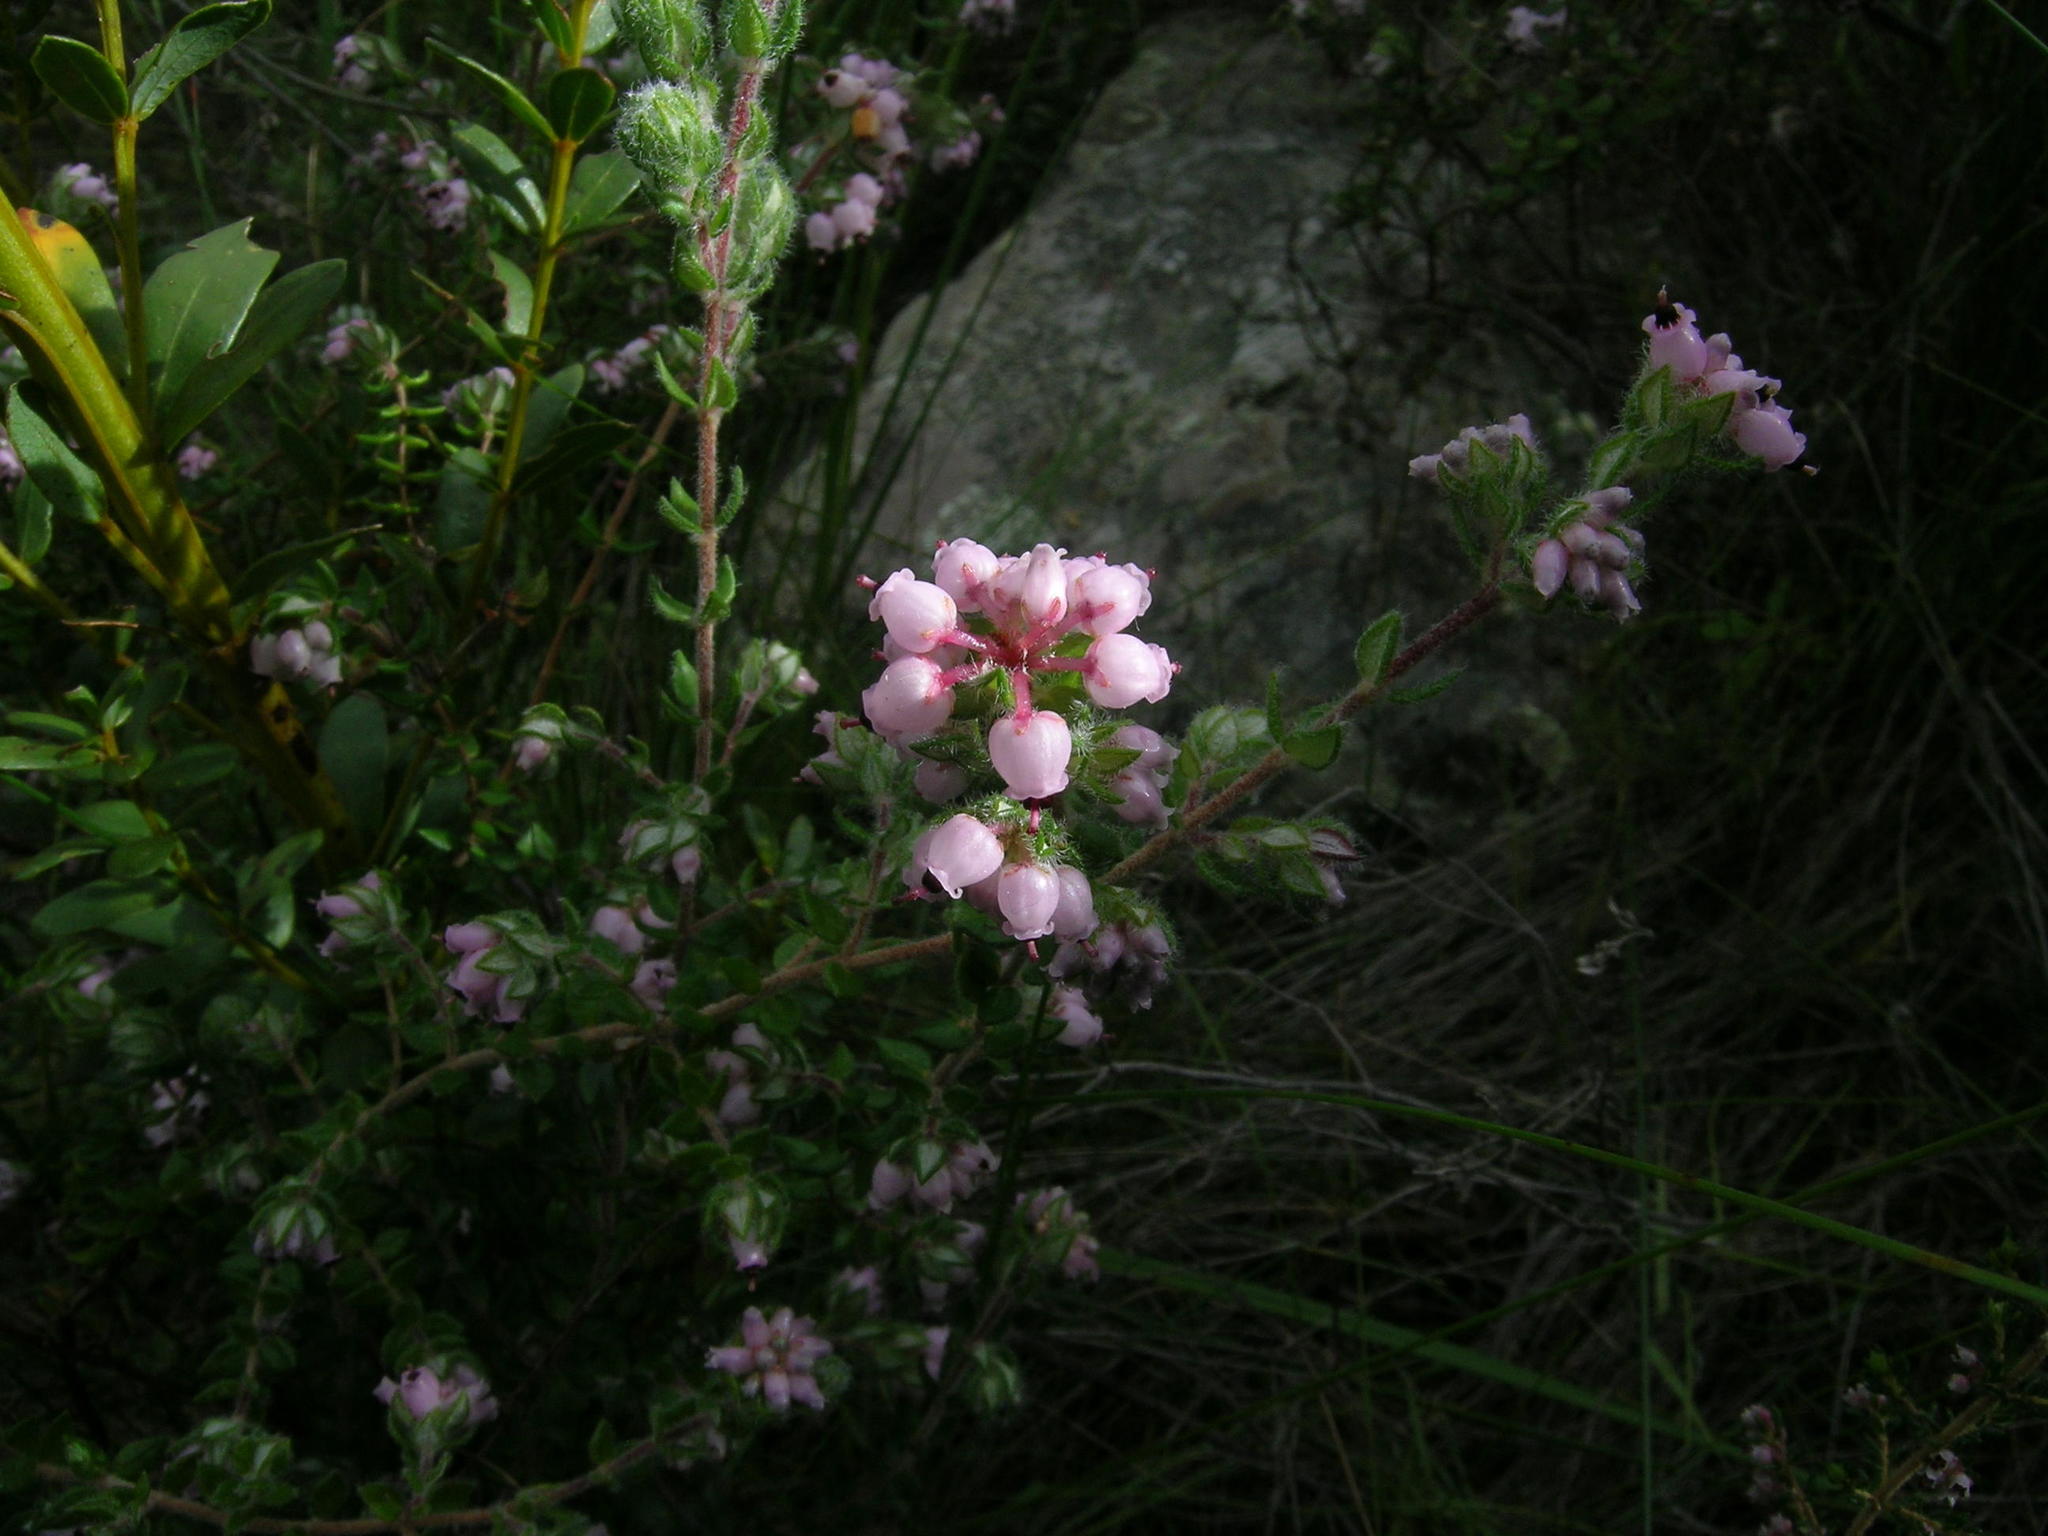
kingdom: Plantae
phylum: Tracheophyta
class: Magnoliopsida
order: Ericales
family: Ericaceae
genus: Erica
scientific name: Erica ocellata
